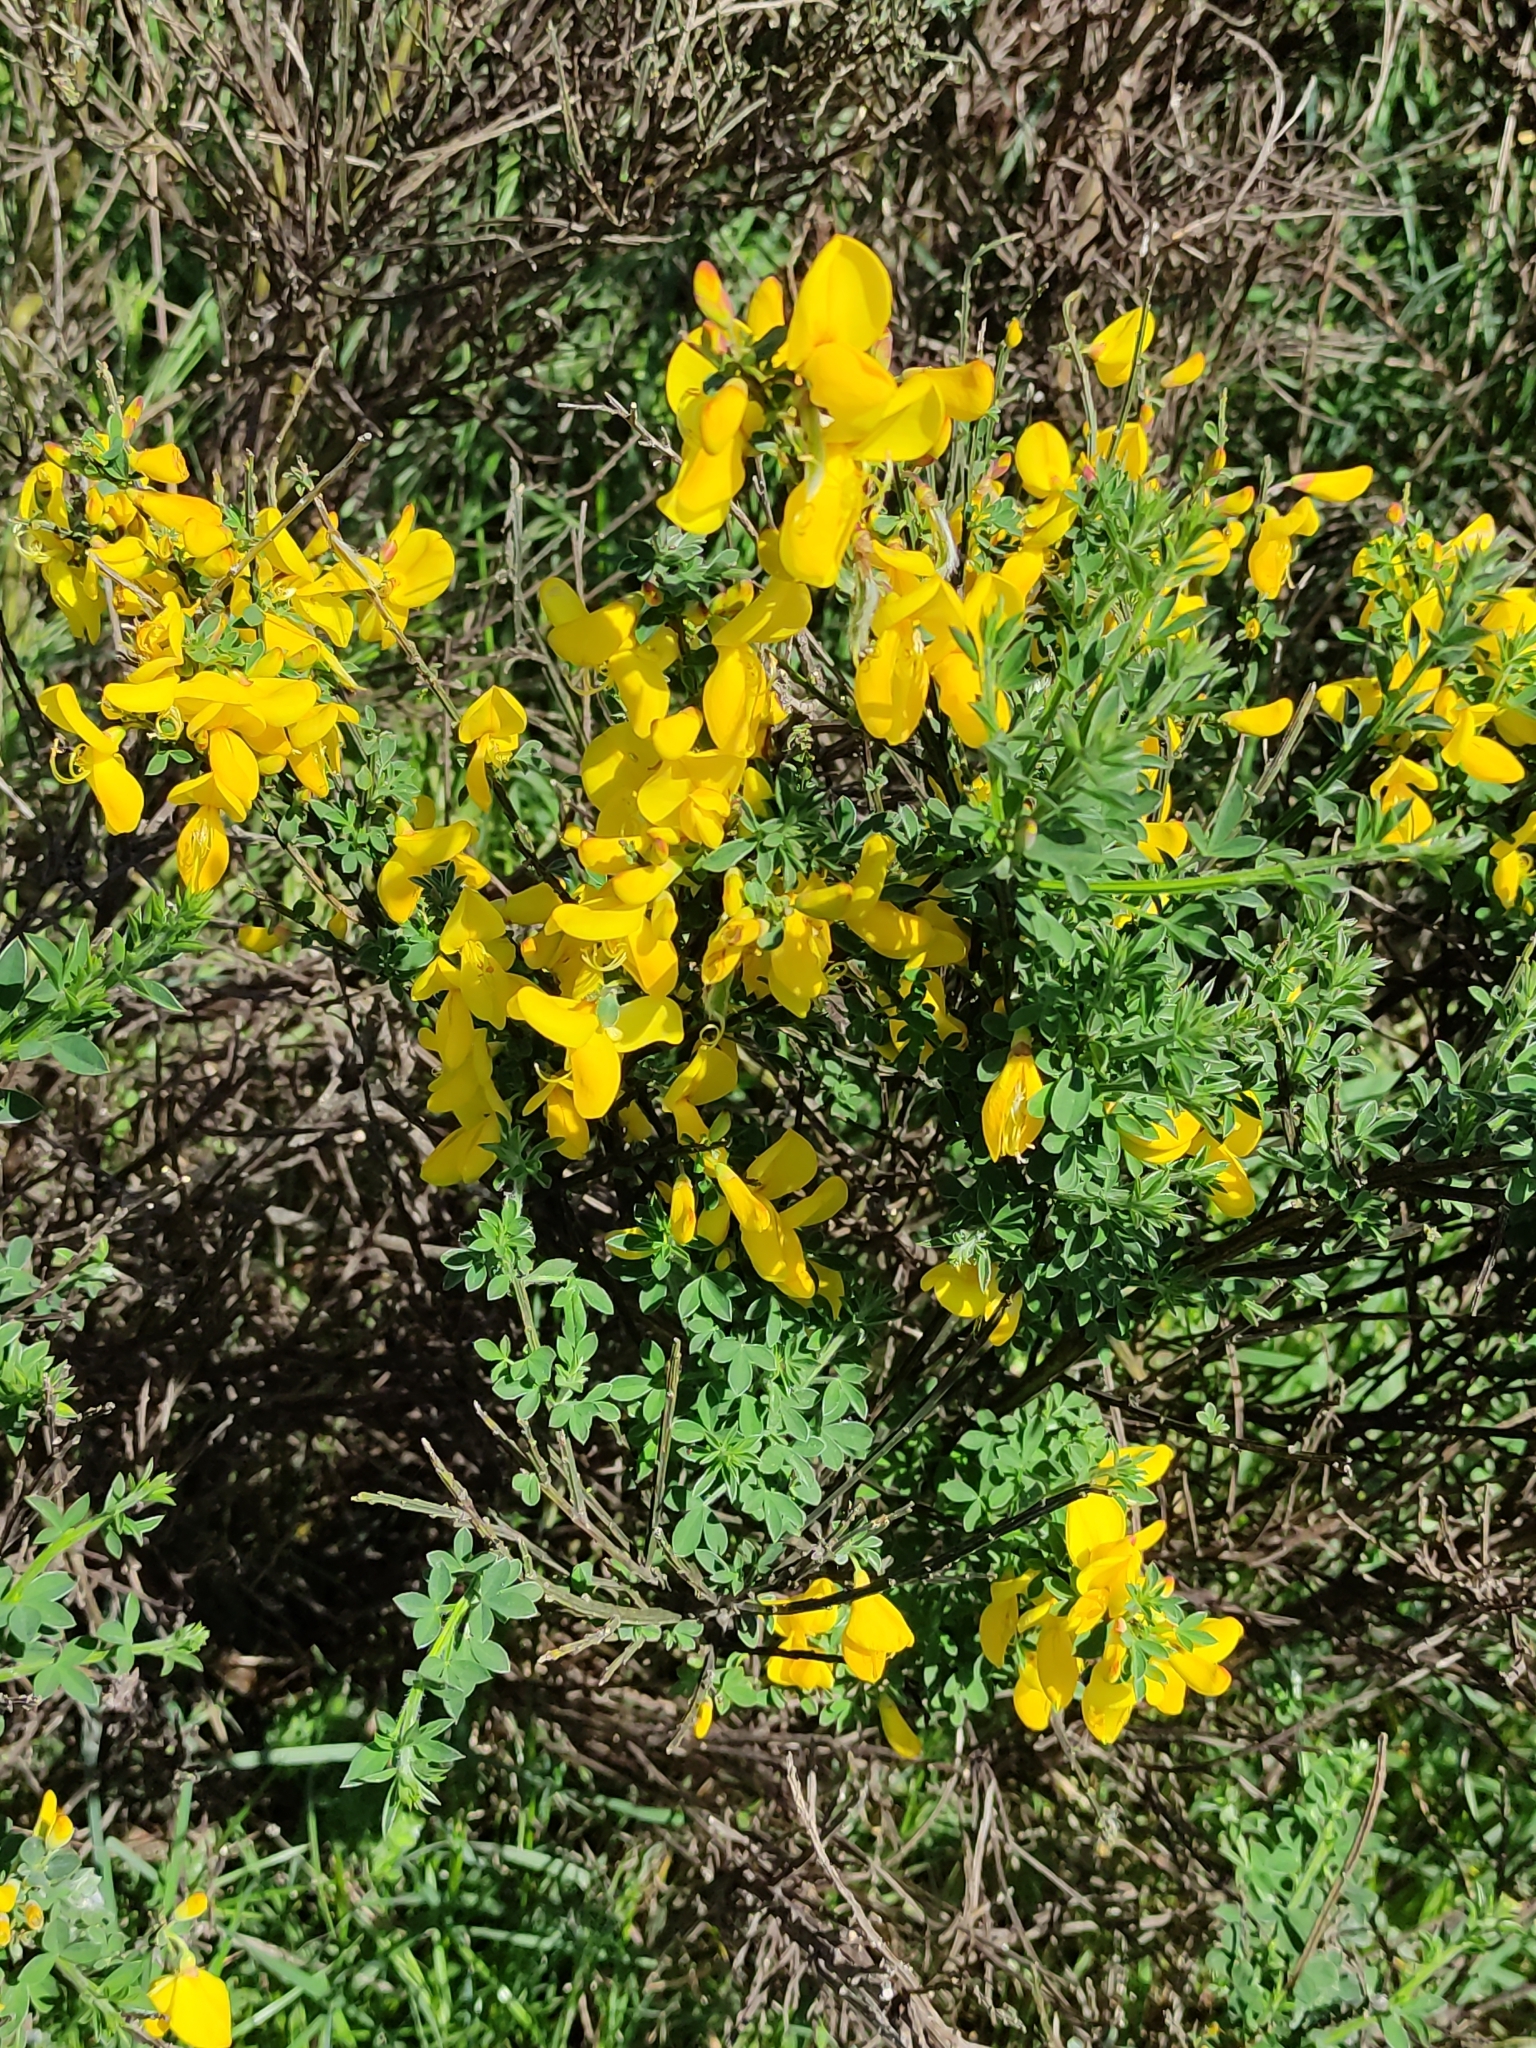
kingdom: Plantae
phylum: Tracheophyta
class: Magnoliopsida
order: Fabales
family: Fabaceae
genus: Cytisus
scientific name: Cytisus scoparius
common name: Scotch broom
